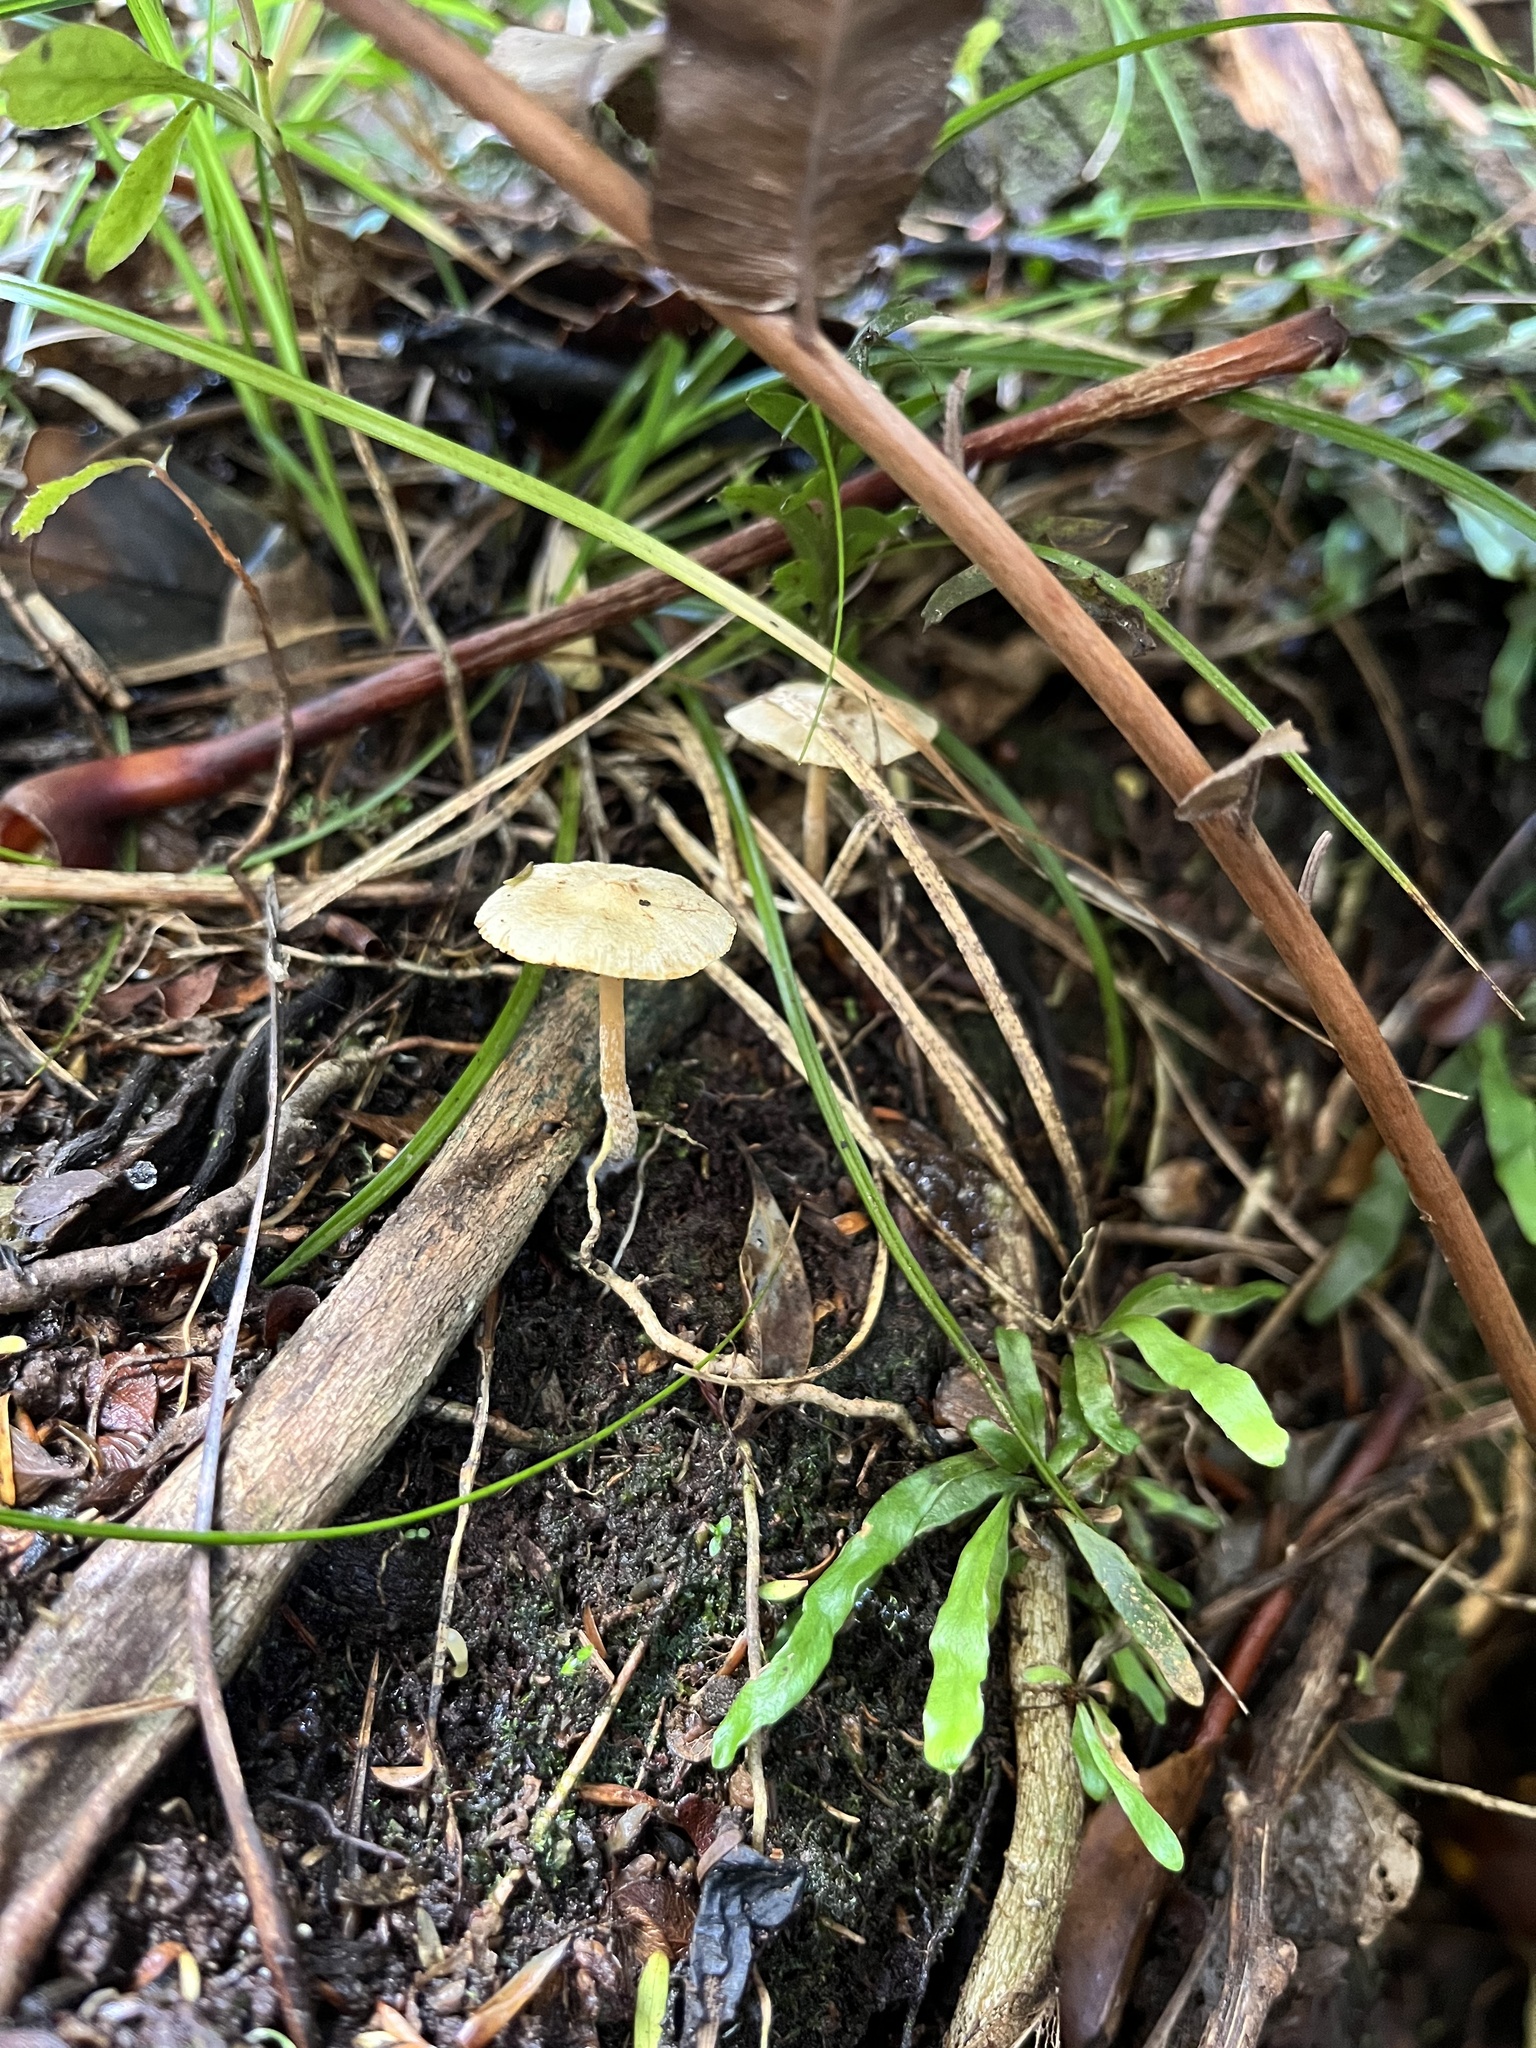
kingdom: Fungi
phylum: Basidiomycota
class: Agaricomycetes
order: Agaricales
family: Strophariaceae
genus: Agrocybe
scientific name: Agrocybe pediades
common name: Common fieldcap
